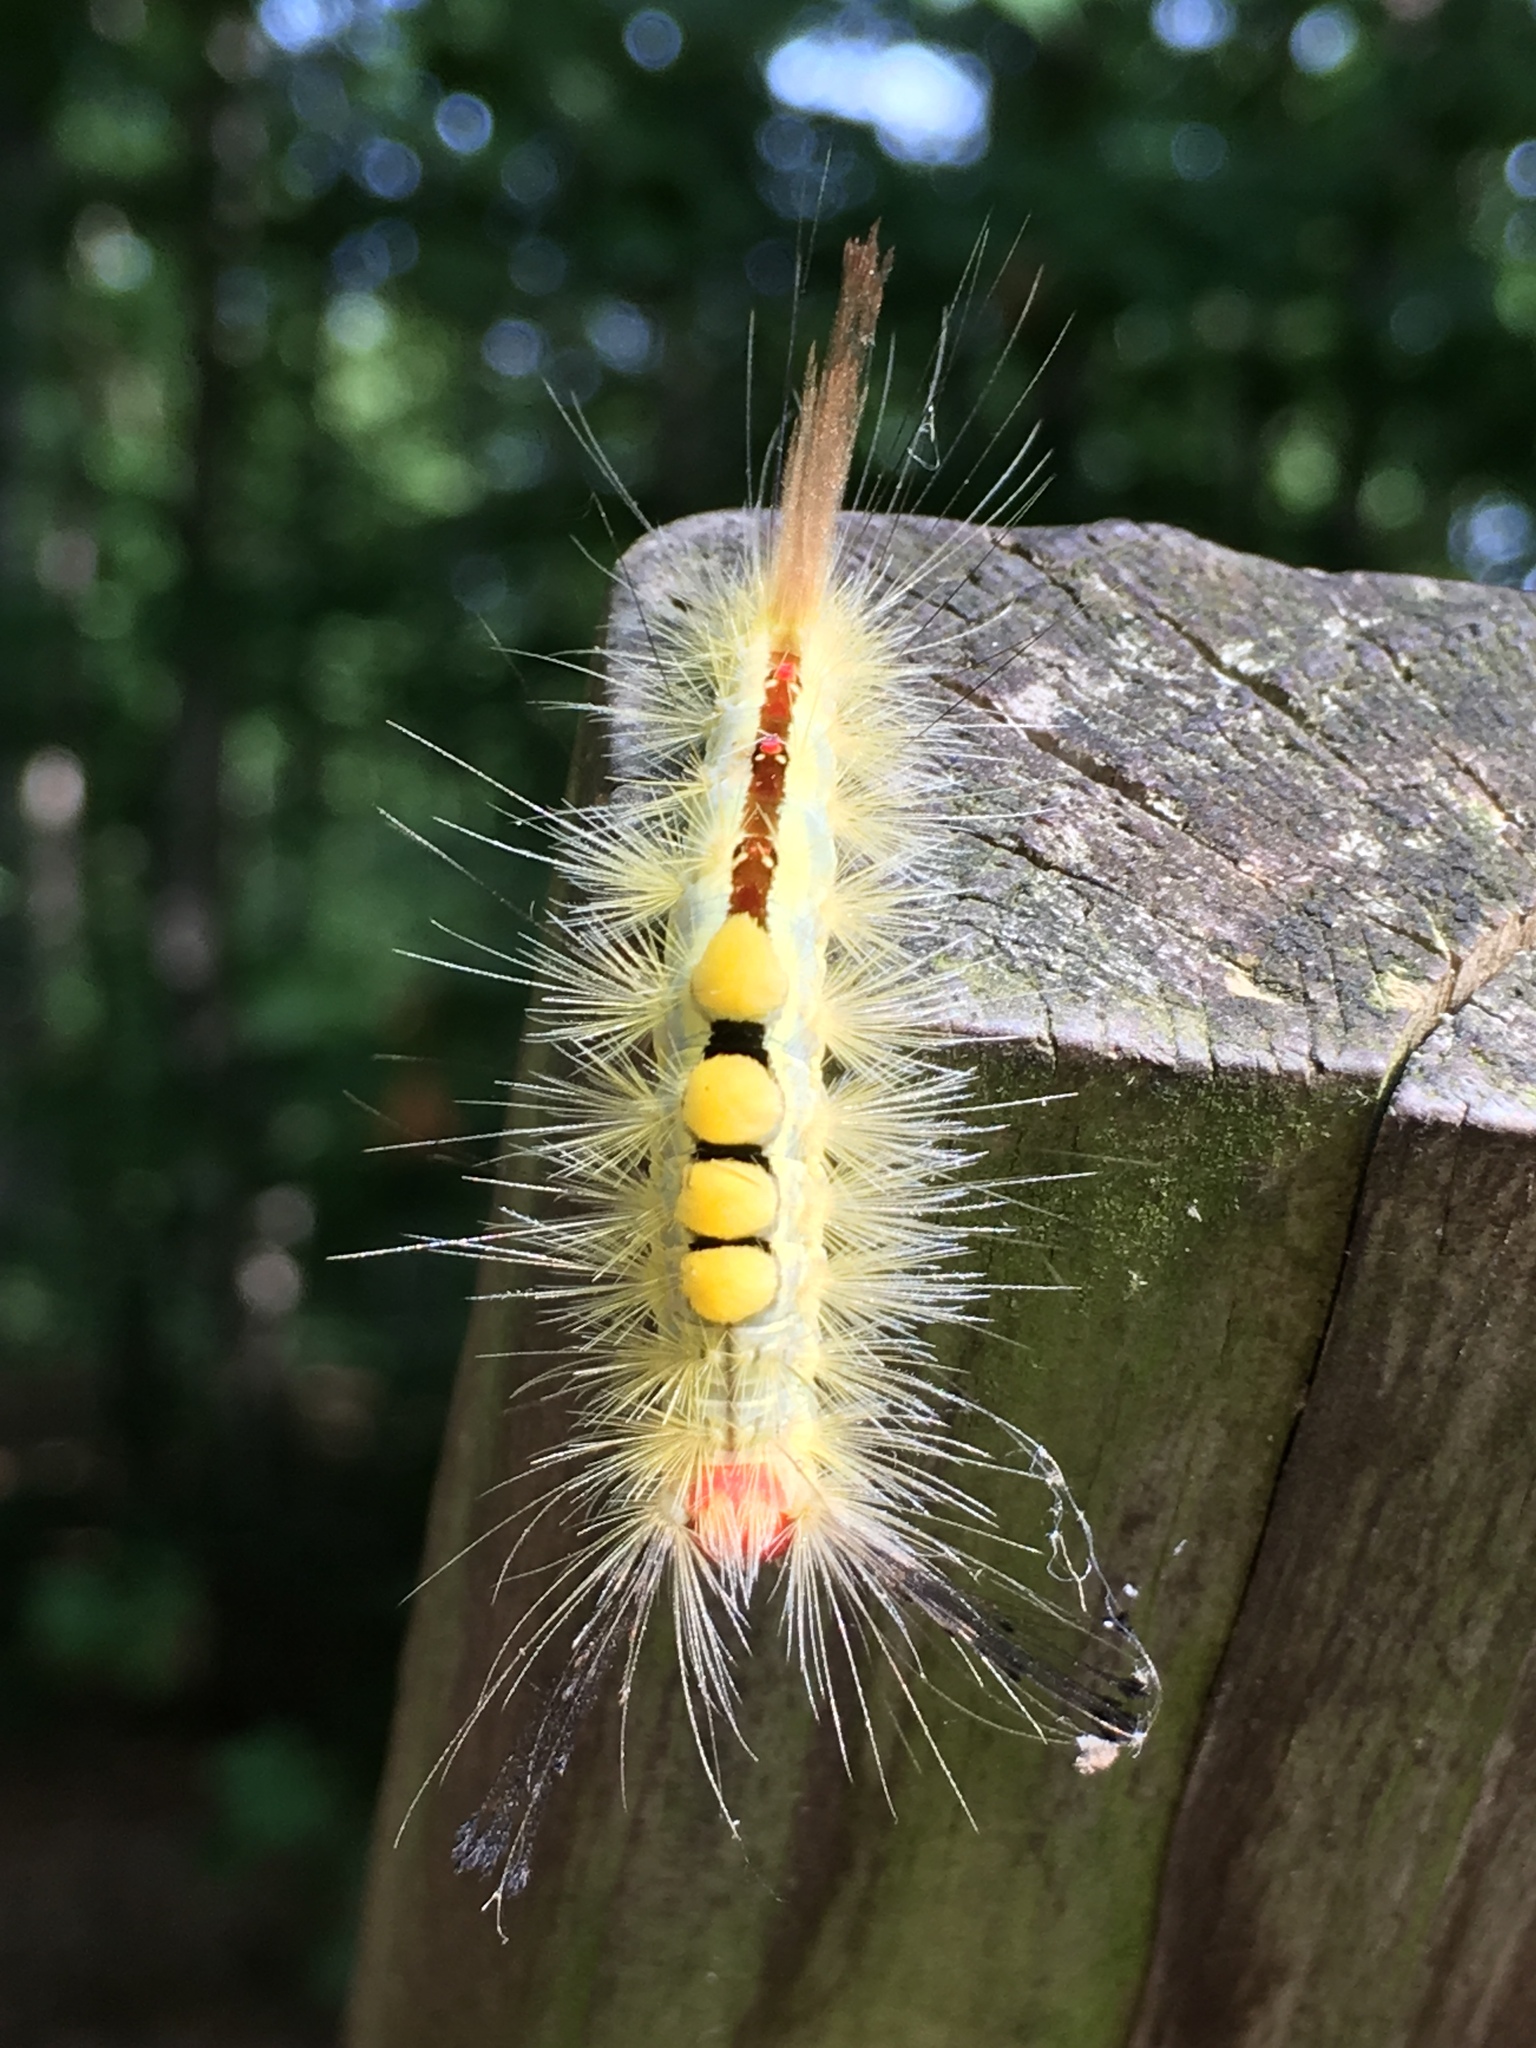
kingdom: Animalia
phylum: Arthropoda
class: Insecta
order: Lepidoptera
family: Erebidae
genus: Orgyia
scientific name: Orgyia leucostigma
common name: White-marked tussock moth
